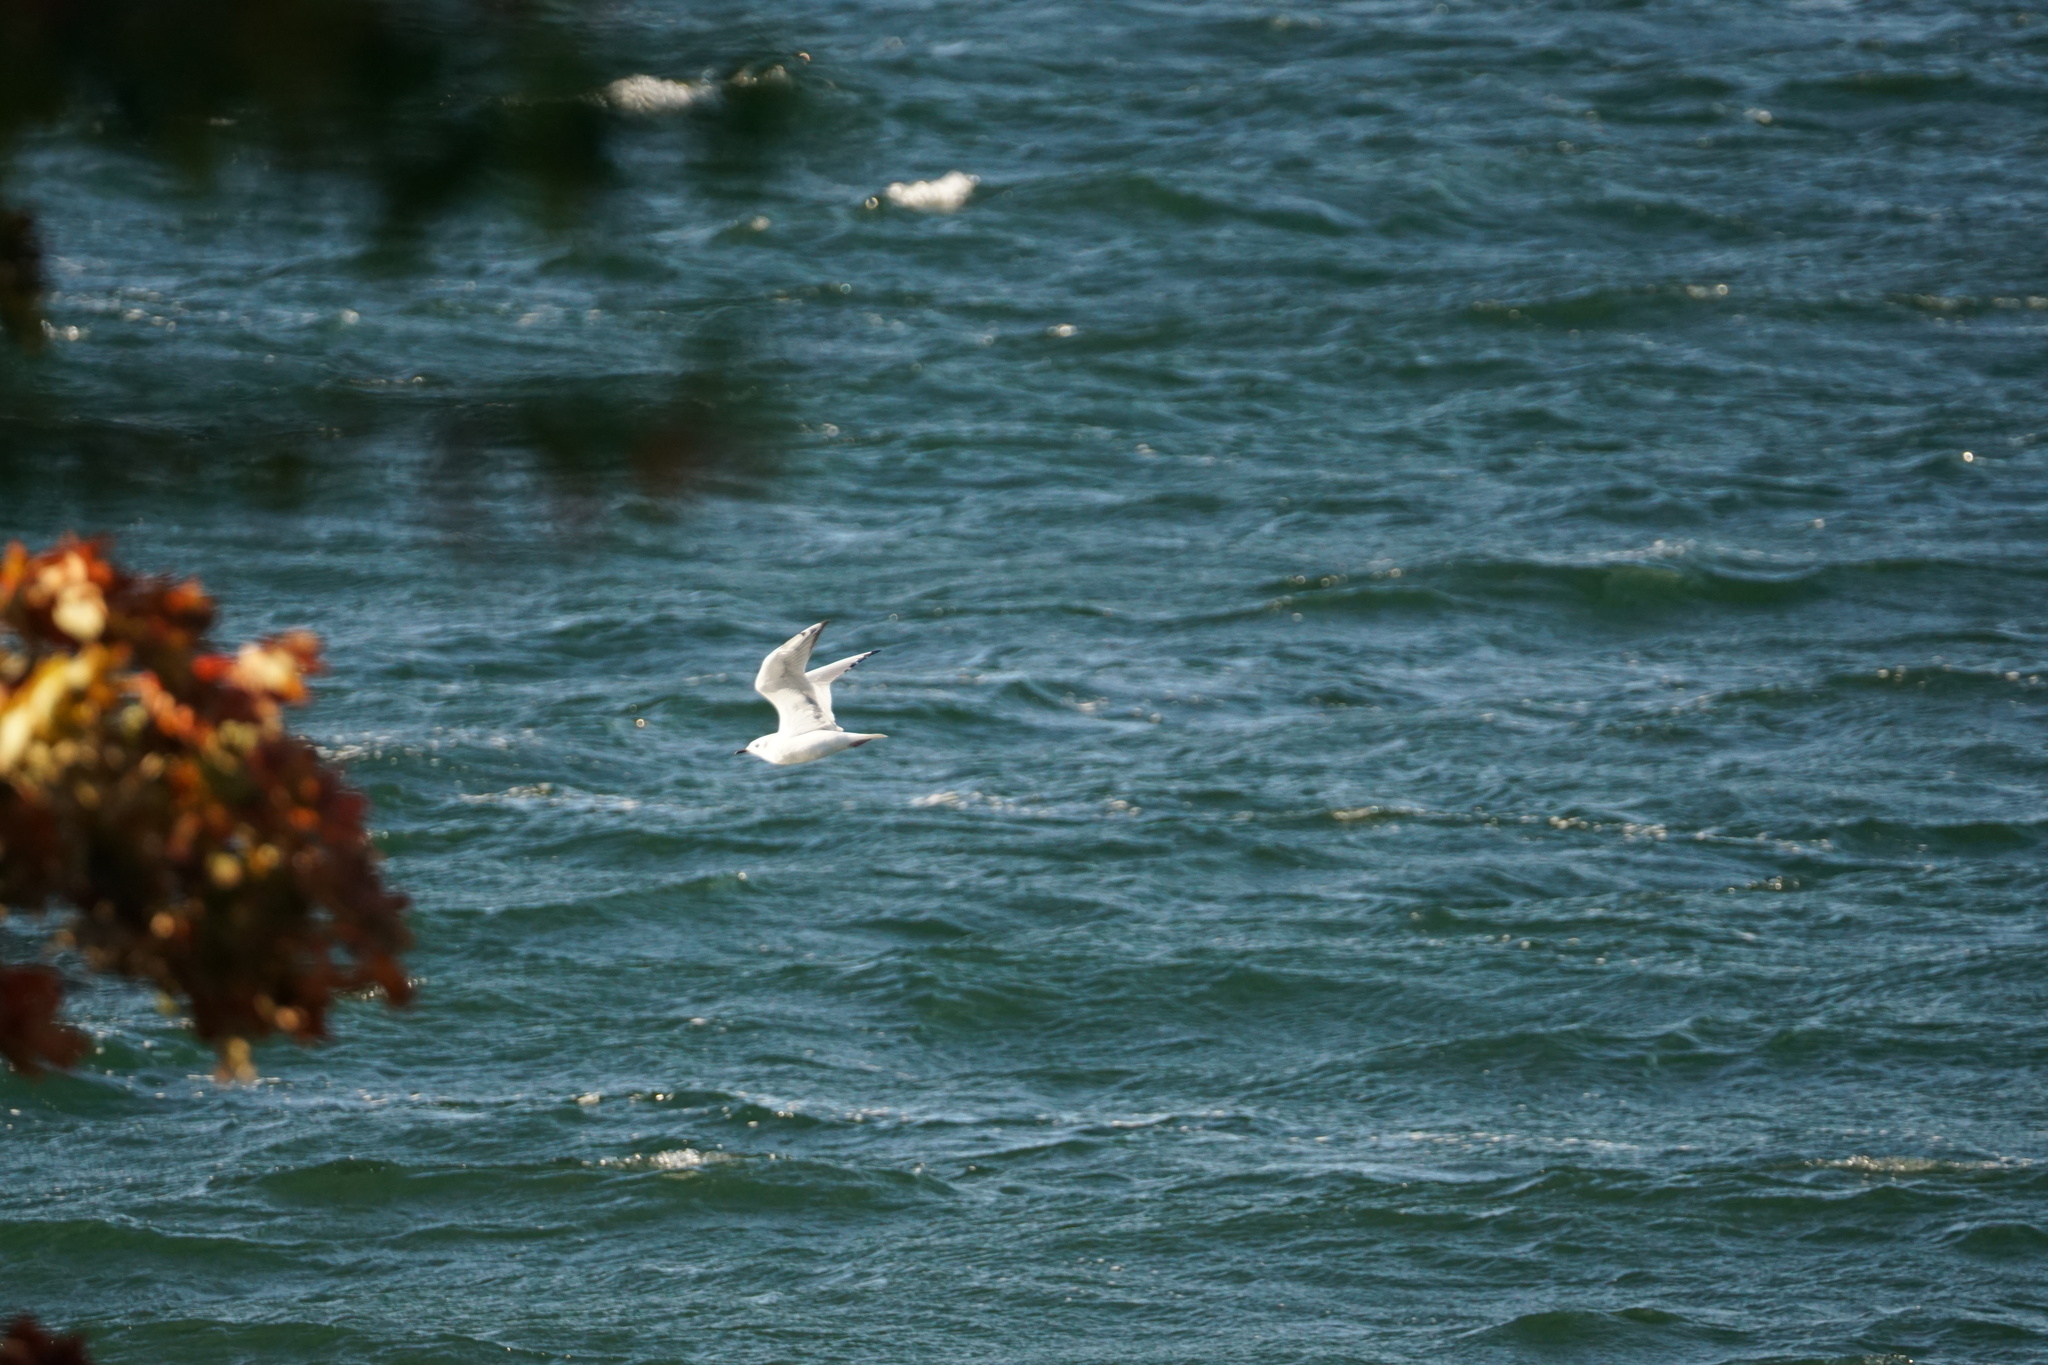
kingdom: Animalia
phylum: Chordata
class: Aves
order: Charadriiformes
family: Laridae
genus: Chroicocephalus
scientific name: Chroicocephalus philadelphia
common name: Bonaparte's gull
